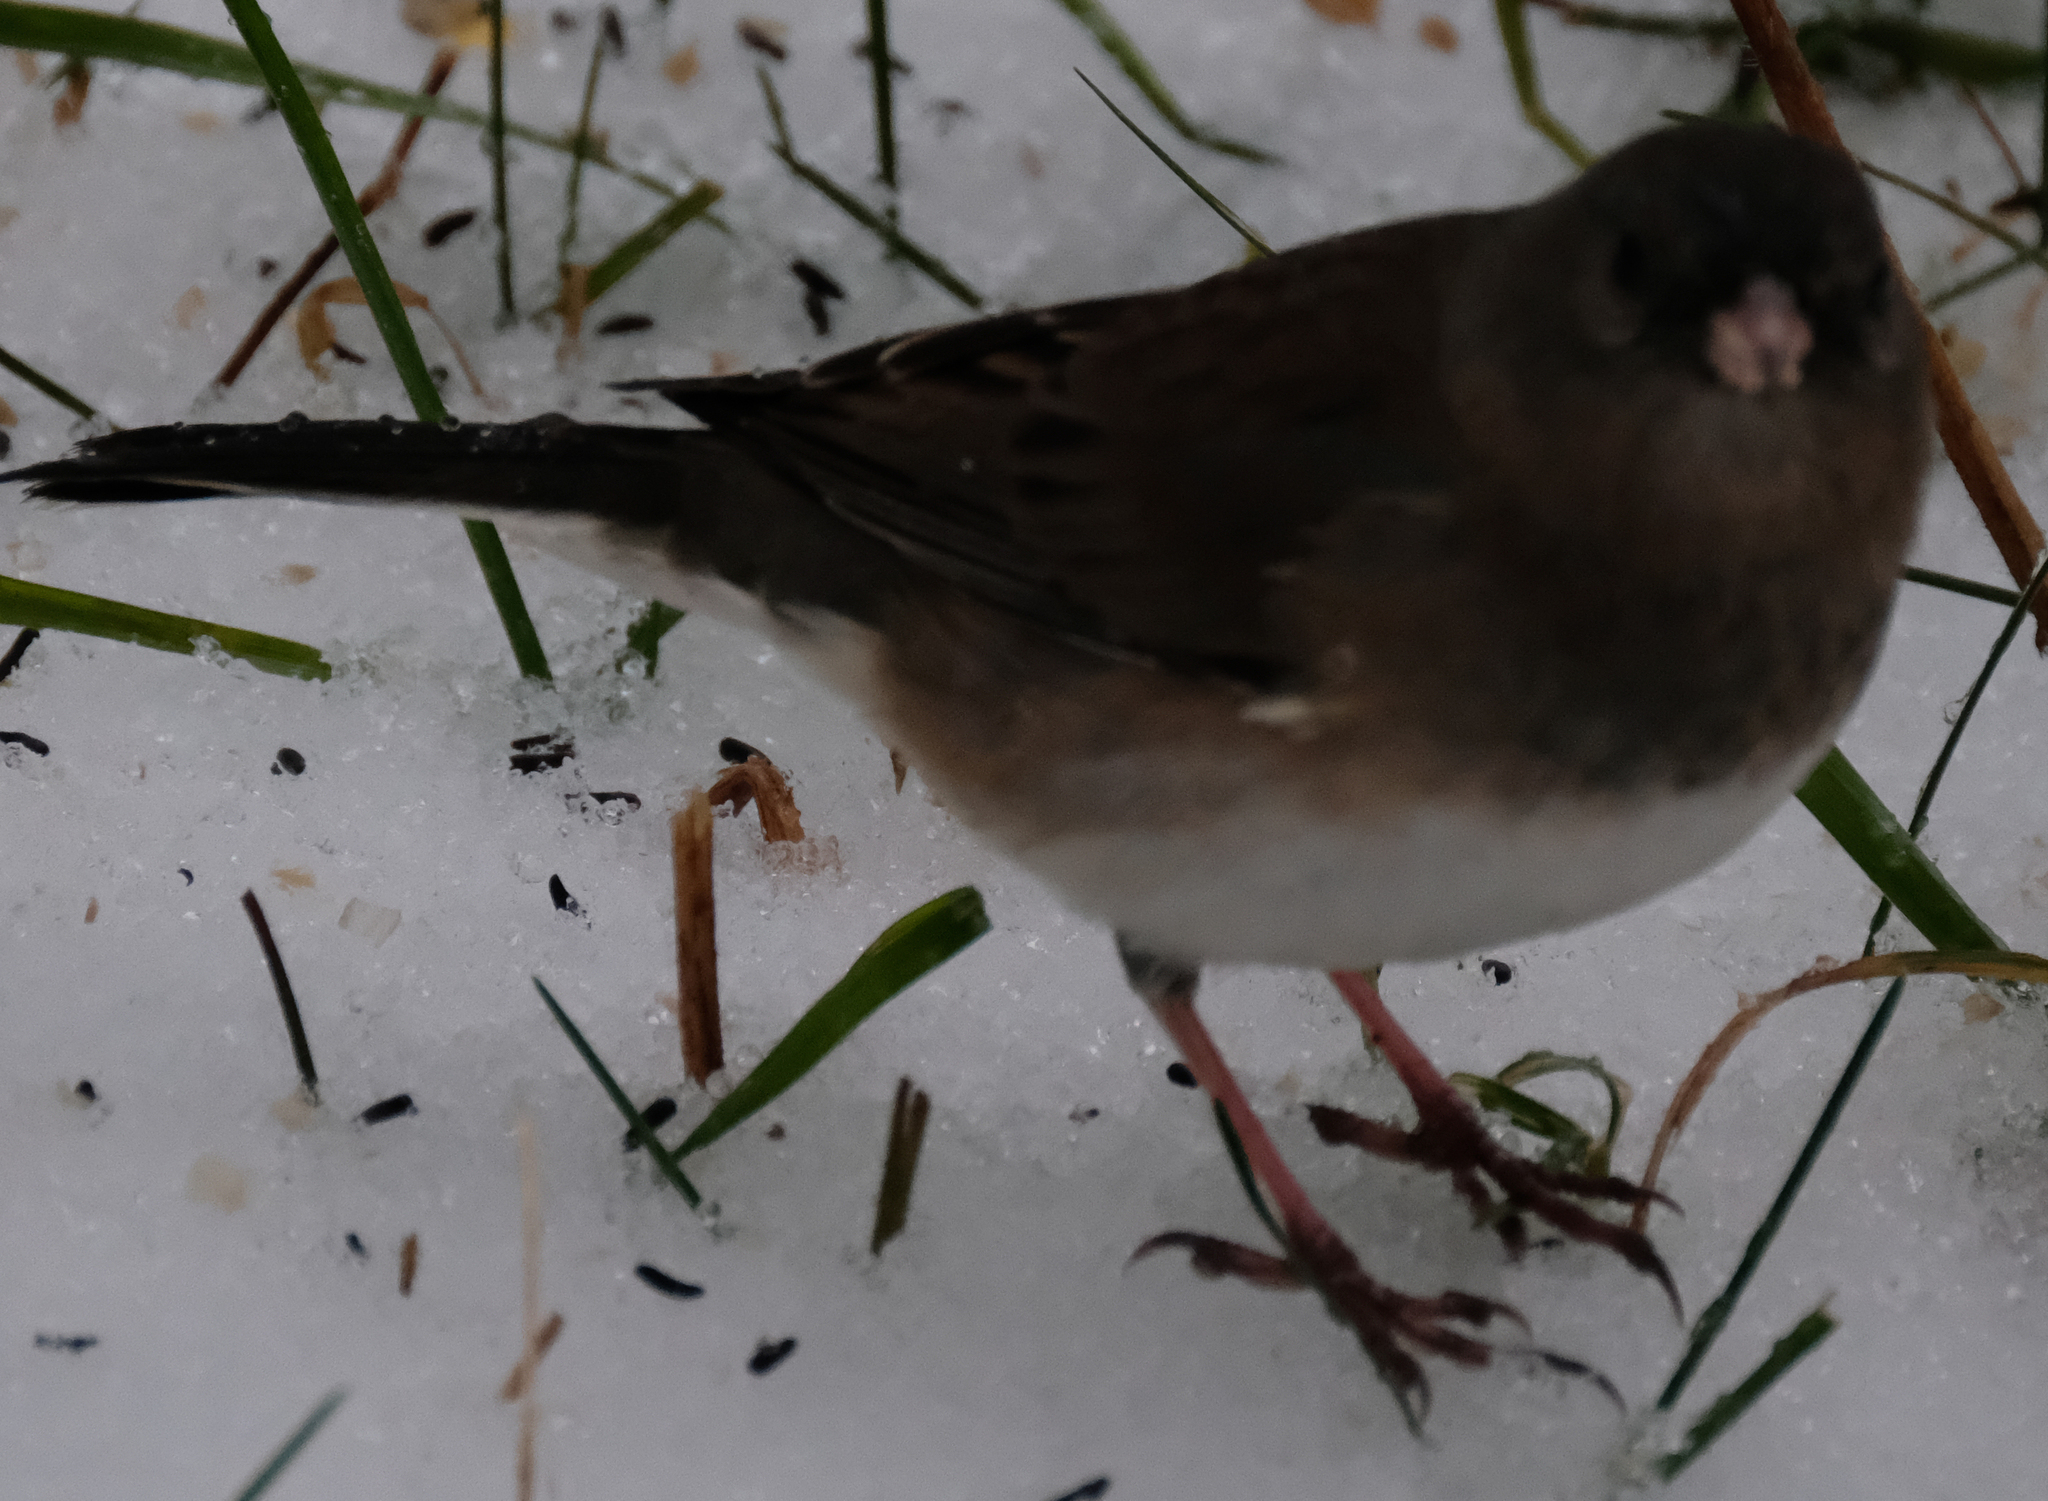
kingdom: Animalia
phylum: Chordata
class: Aves
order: Passeriformes
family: Passerellidae
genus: Junco
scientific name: Junco hyemalis
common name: Dark-eyed junco
